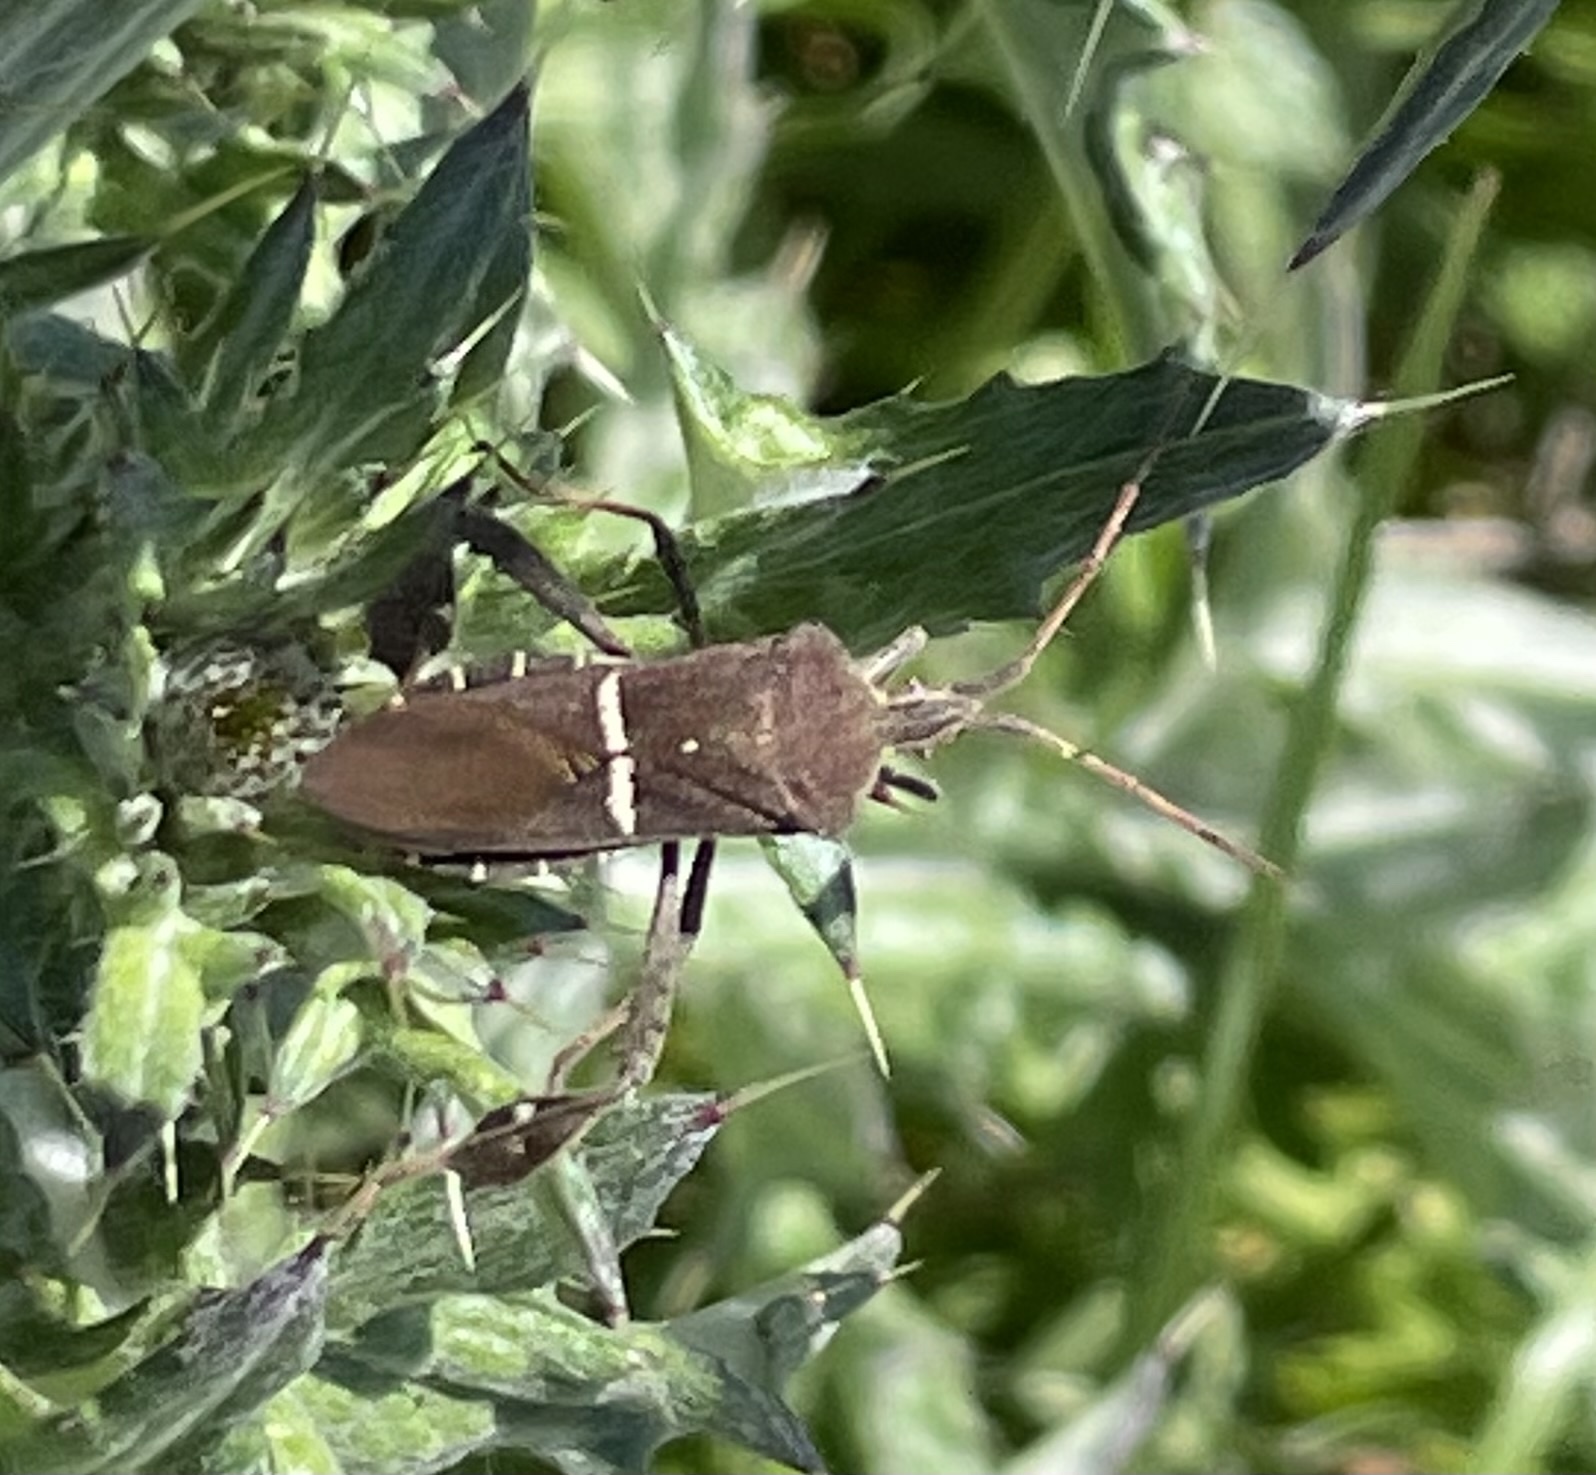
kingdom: Animalia
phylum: Arthropoda
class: Insecta
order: Hemiptera
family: Coreidae
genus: Leptoglossus
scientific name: Leptoglossus phyllopus
